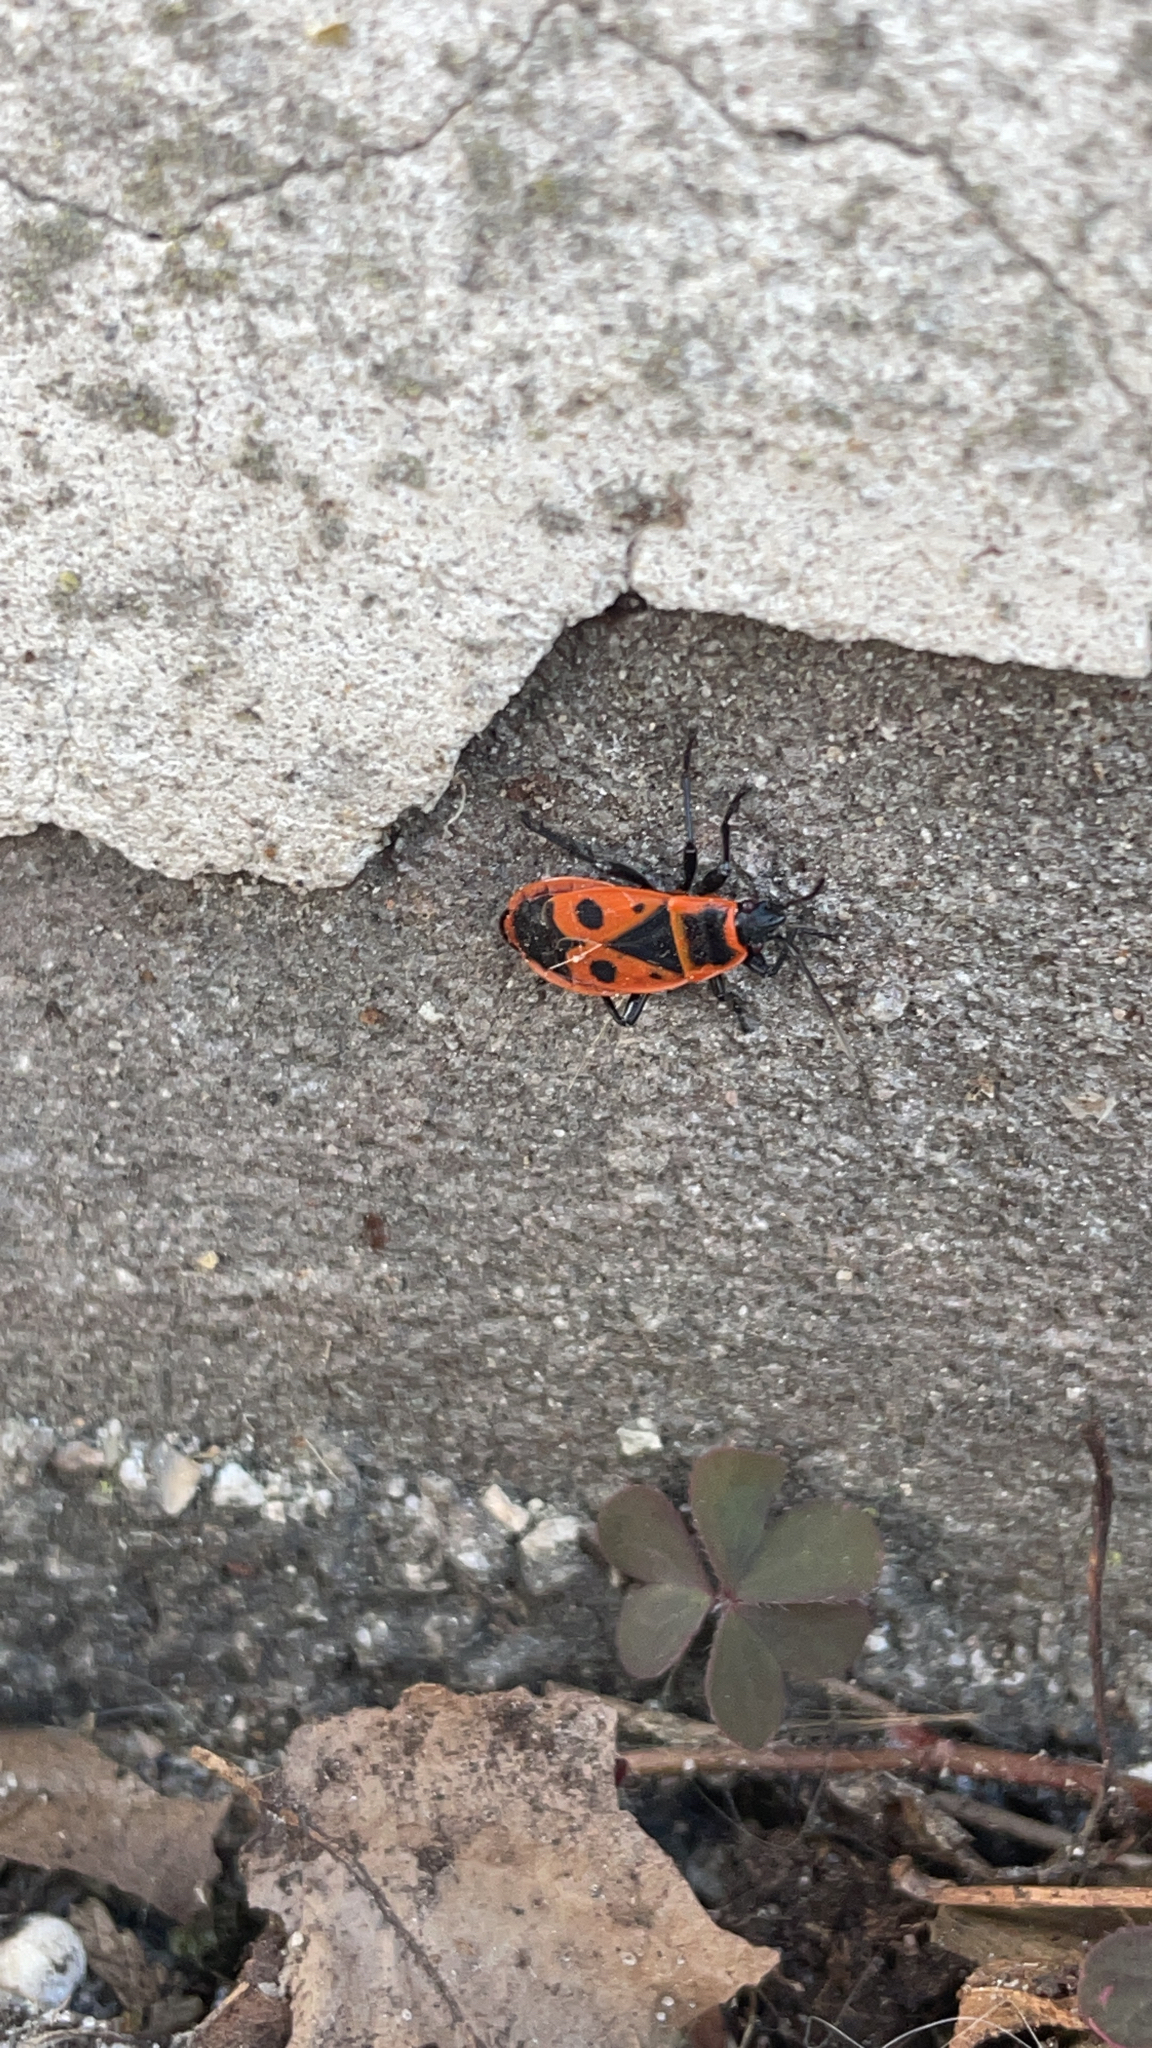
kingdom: Animalia
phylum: Arthropoda
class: Insecta
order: Hemiptera
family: Pyrrhocoridae
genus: Pyrrhocoris
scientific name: Pyrrhocoris apterus
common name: Firebug
